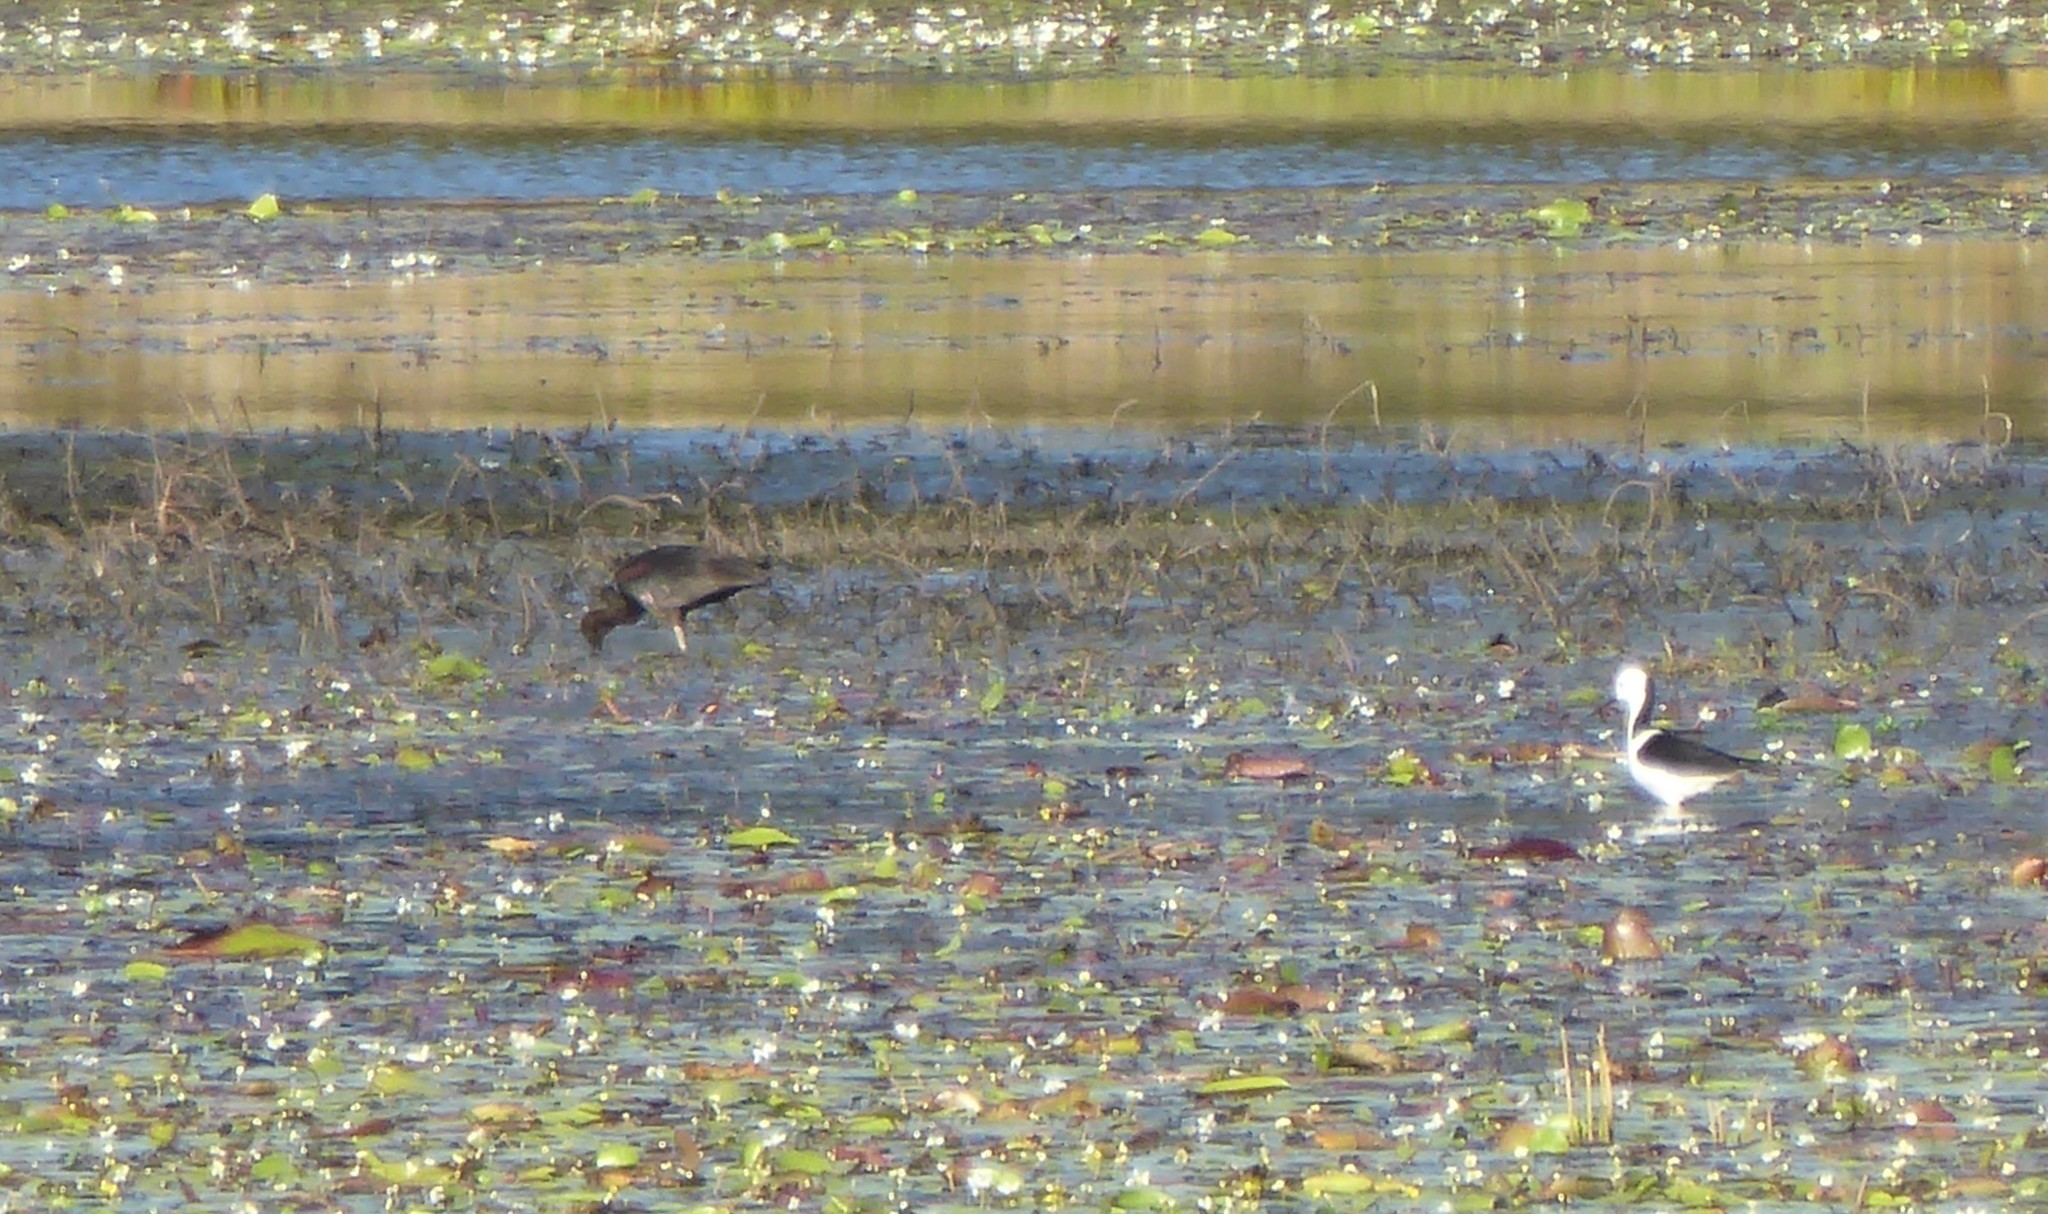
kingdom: Animalia
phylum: Chordata
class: Aves
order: Pelecaniformes
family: Threskiornithidae
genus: Plegadis
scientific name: Plegadis falcinellus
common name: Glossy ibis
